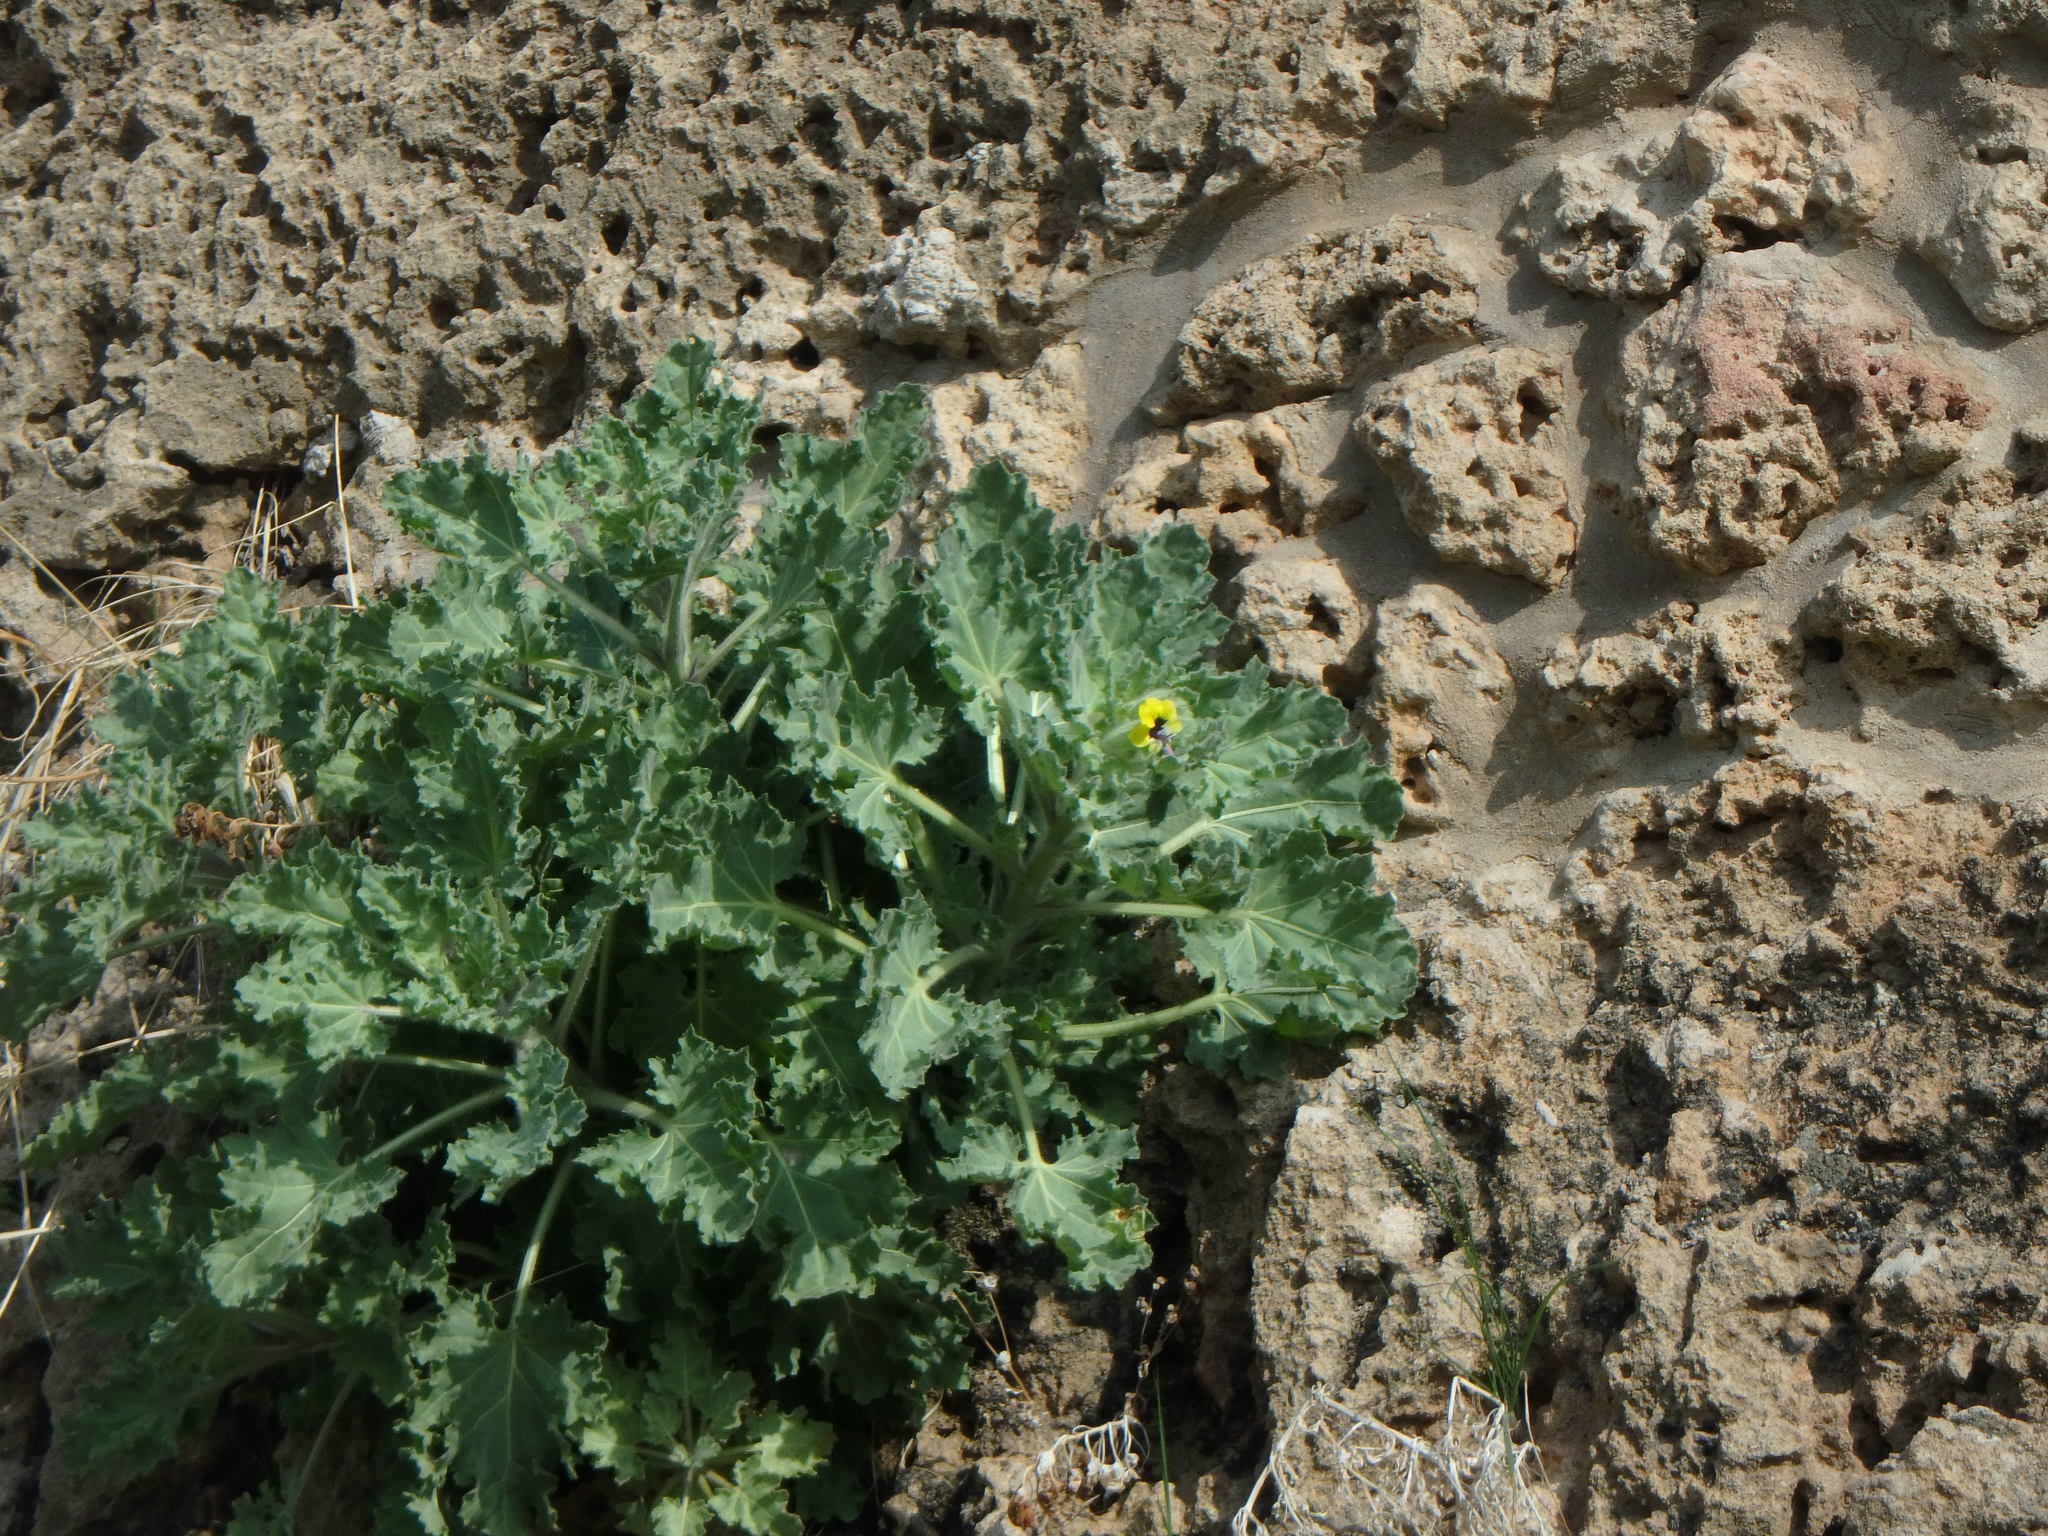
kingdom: Plantae
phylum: Tracheophyta
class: Magnoliopsida
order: Solanales
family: Solanaceae
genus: Hyoscyamus
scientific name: Hyoscyamus aureus
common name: Golden henbane
